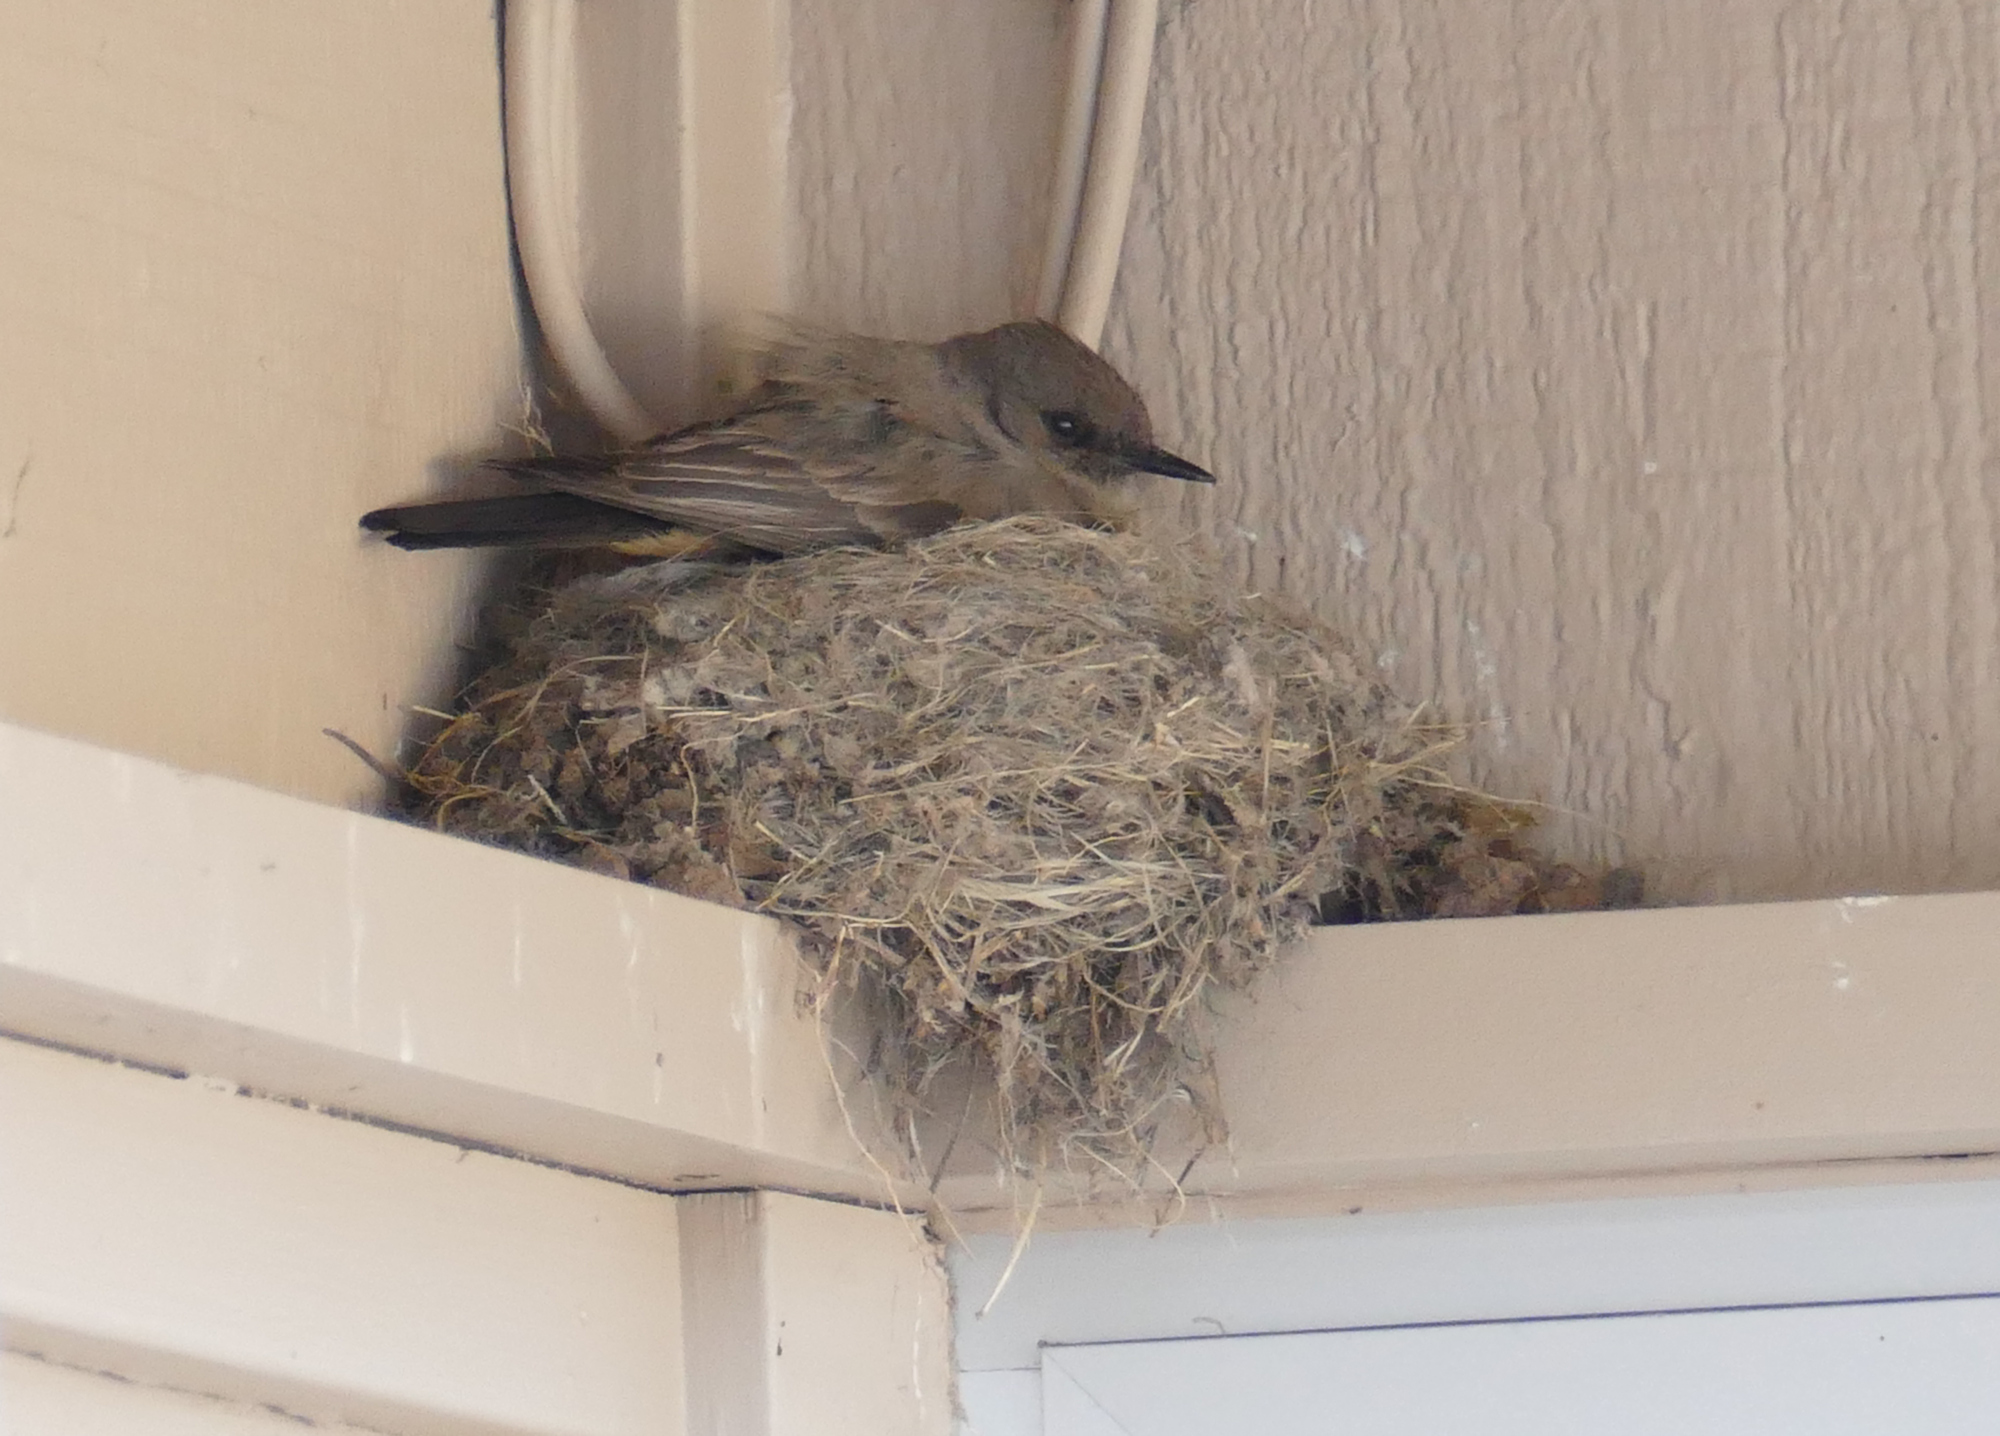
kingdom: Animalia
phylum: Chordata
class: Aves
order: Passeriformes
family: Tyrannidae
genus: Sayornis
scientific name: Sayornis saya
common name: Say's phoebe
